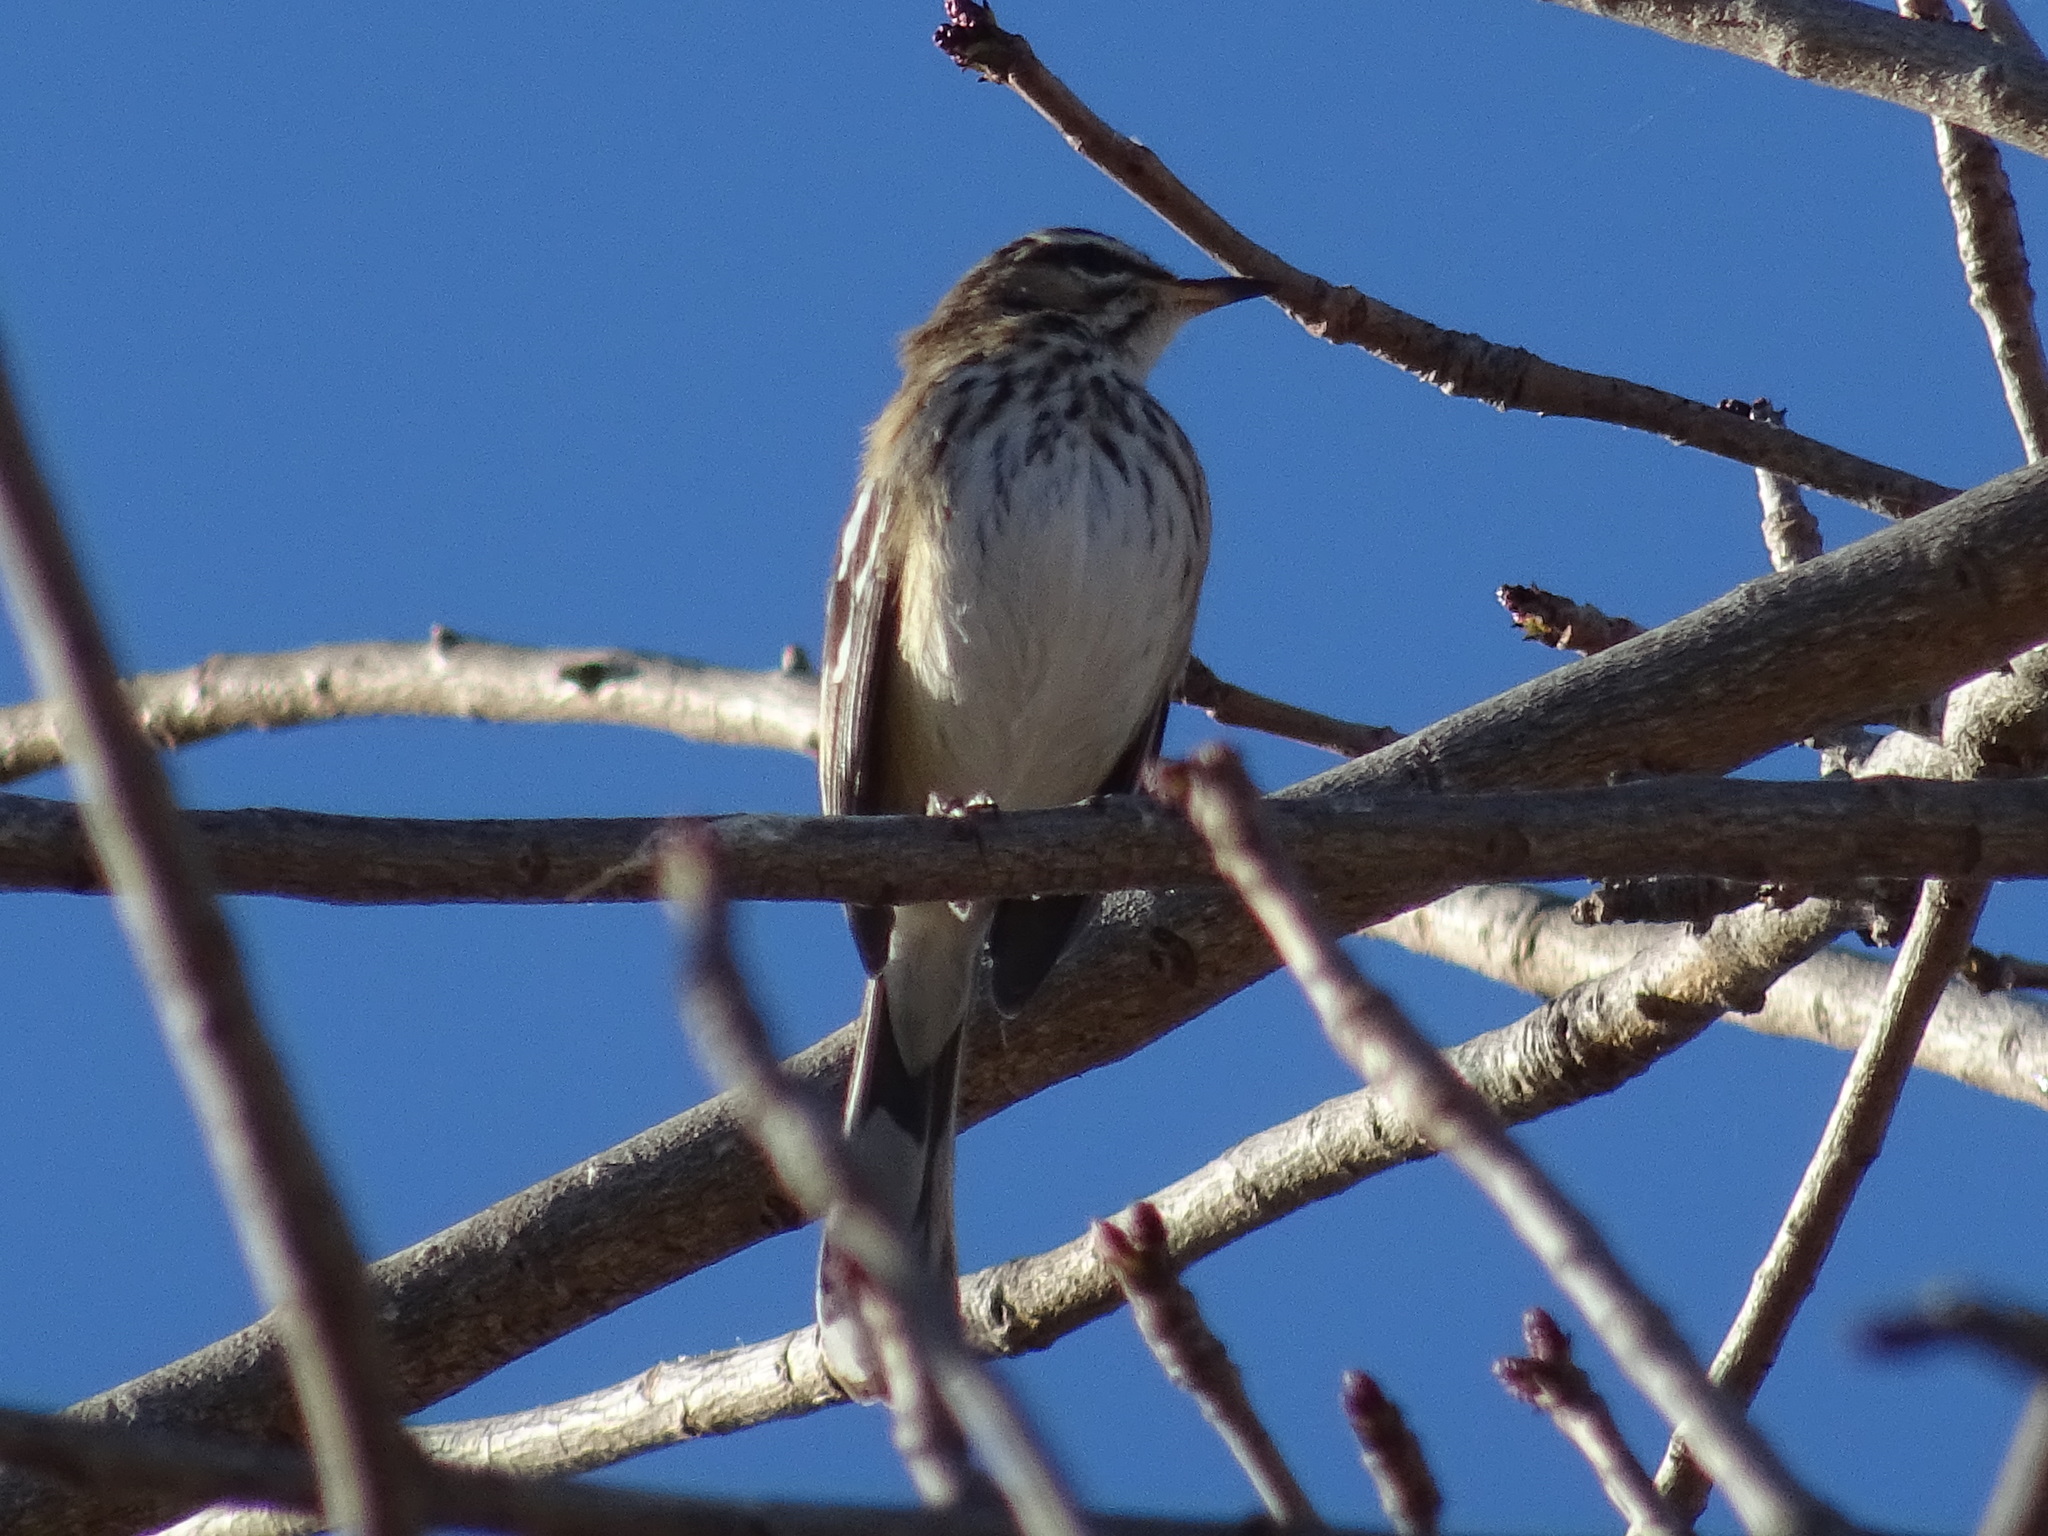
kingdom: Animalia
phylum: Chordata
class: Aves
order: Passeriformes
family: Muscicapidae
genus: Erythropygia
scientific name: Erythropygia leucophrys
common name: White-browed scrub robin
